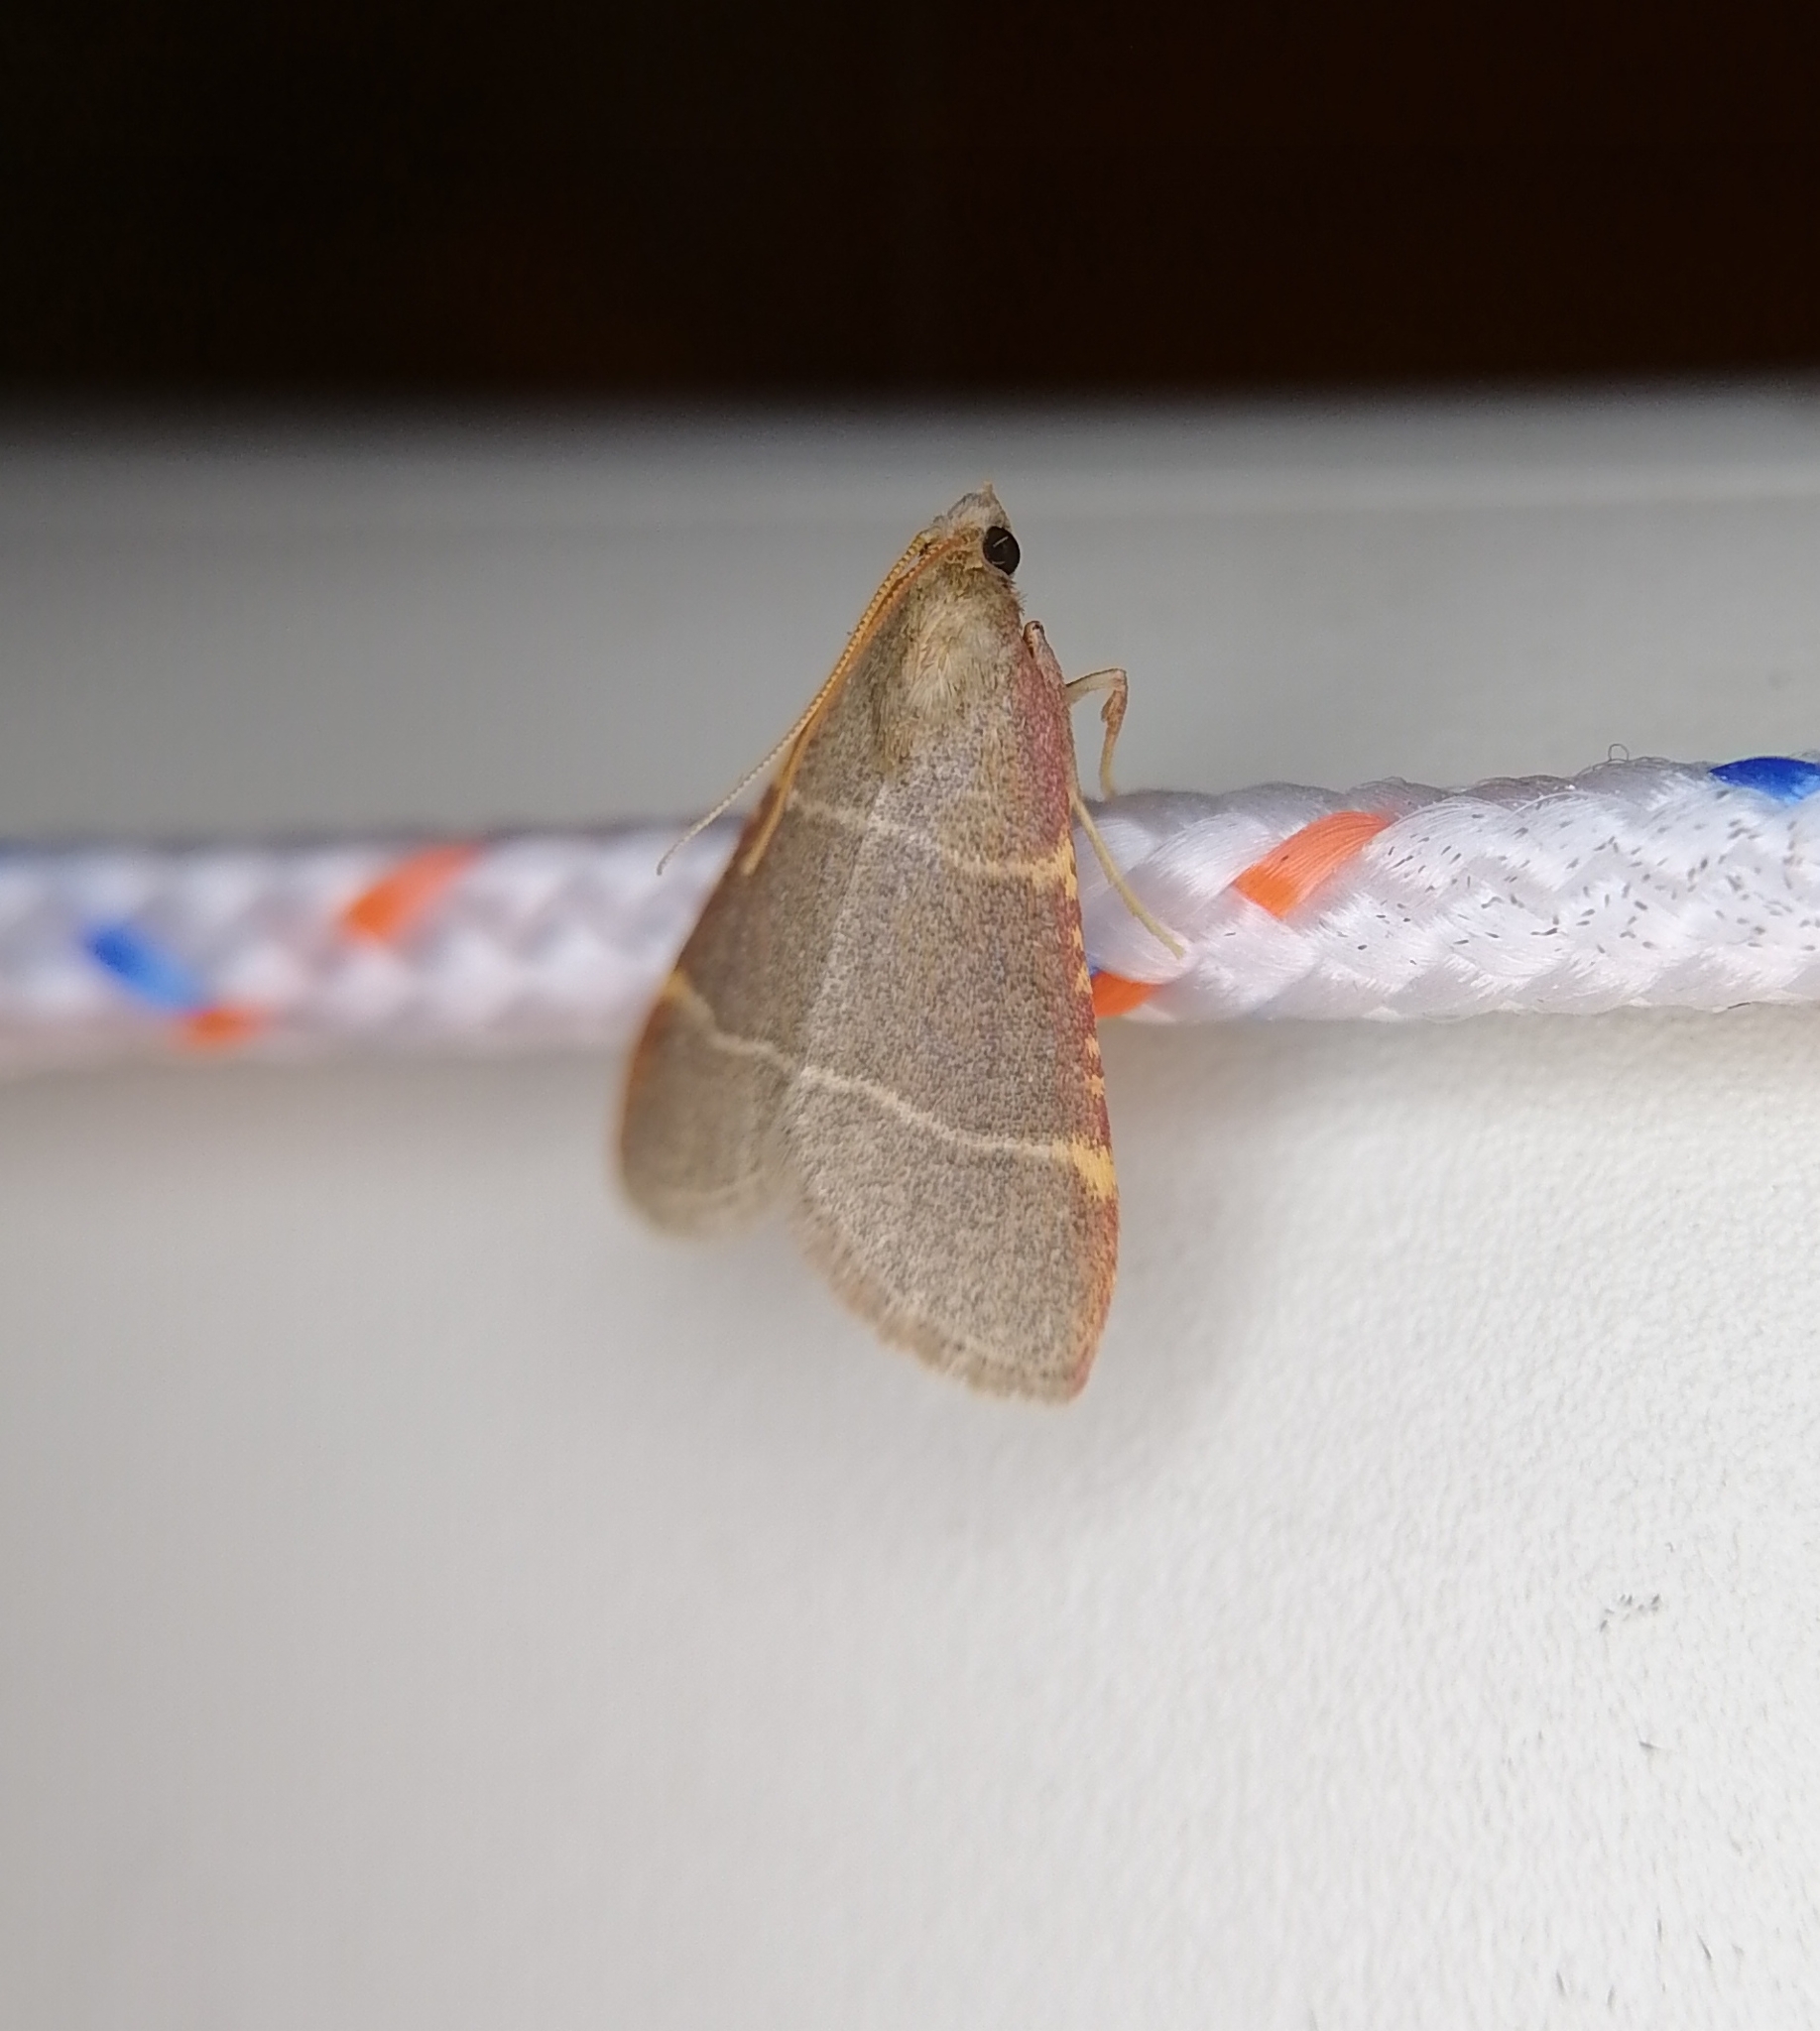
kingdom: Animalia
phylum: Arthropoda
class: Insecta
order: Lepidoptera
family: Pyralidae
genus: Hypsopygia
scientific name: Hypsopygia glaucinalis
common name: Double-striped tabby
